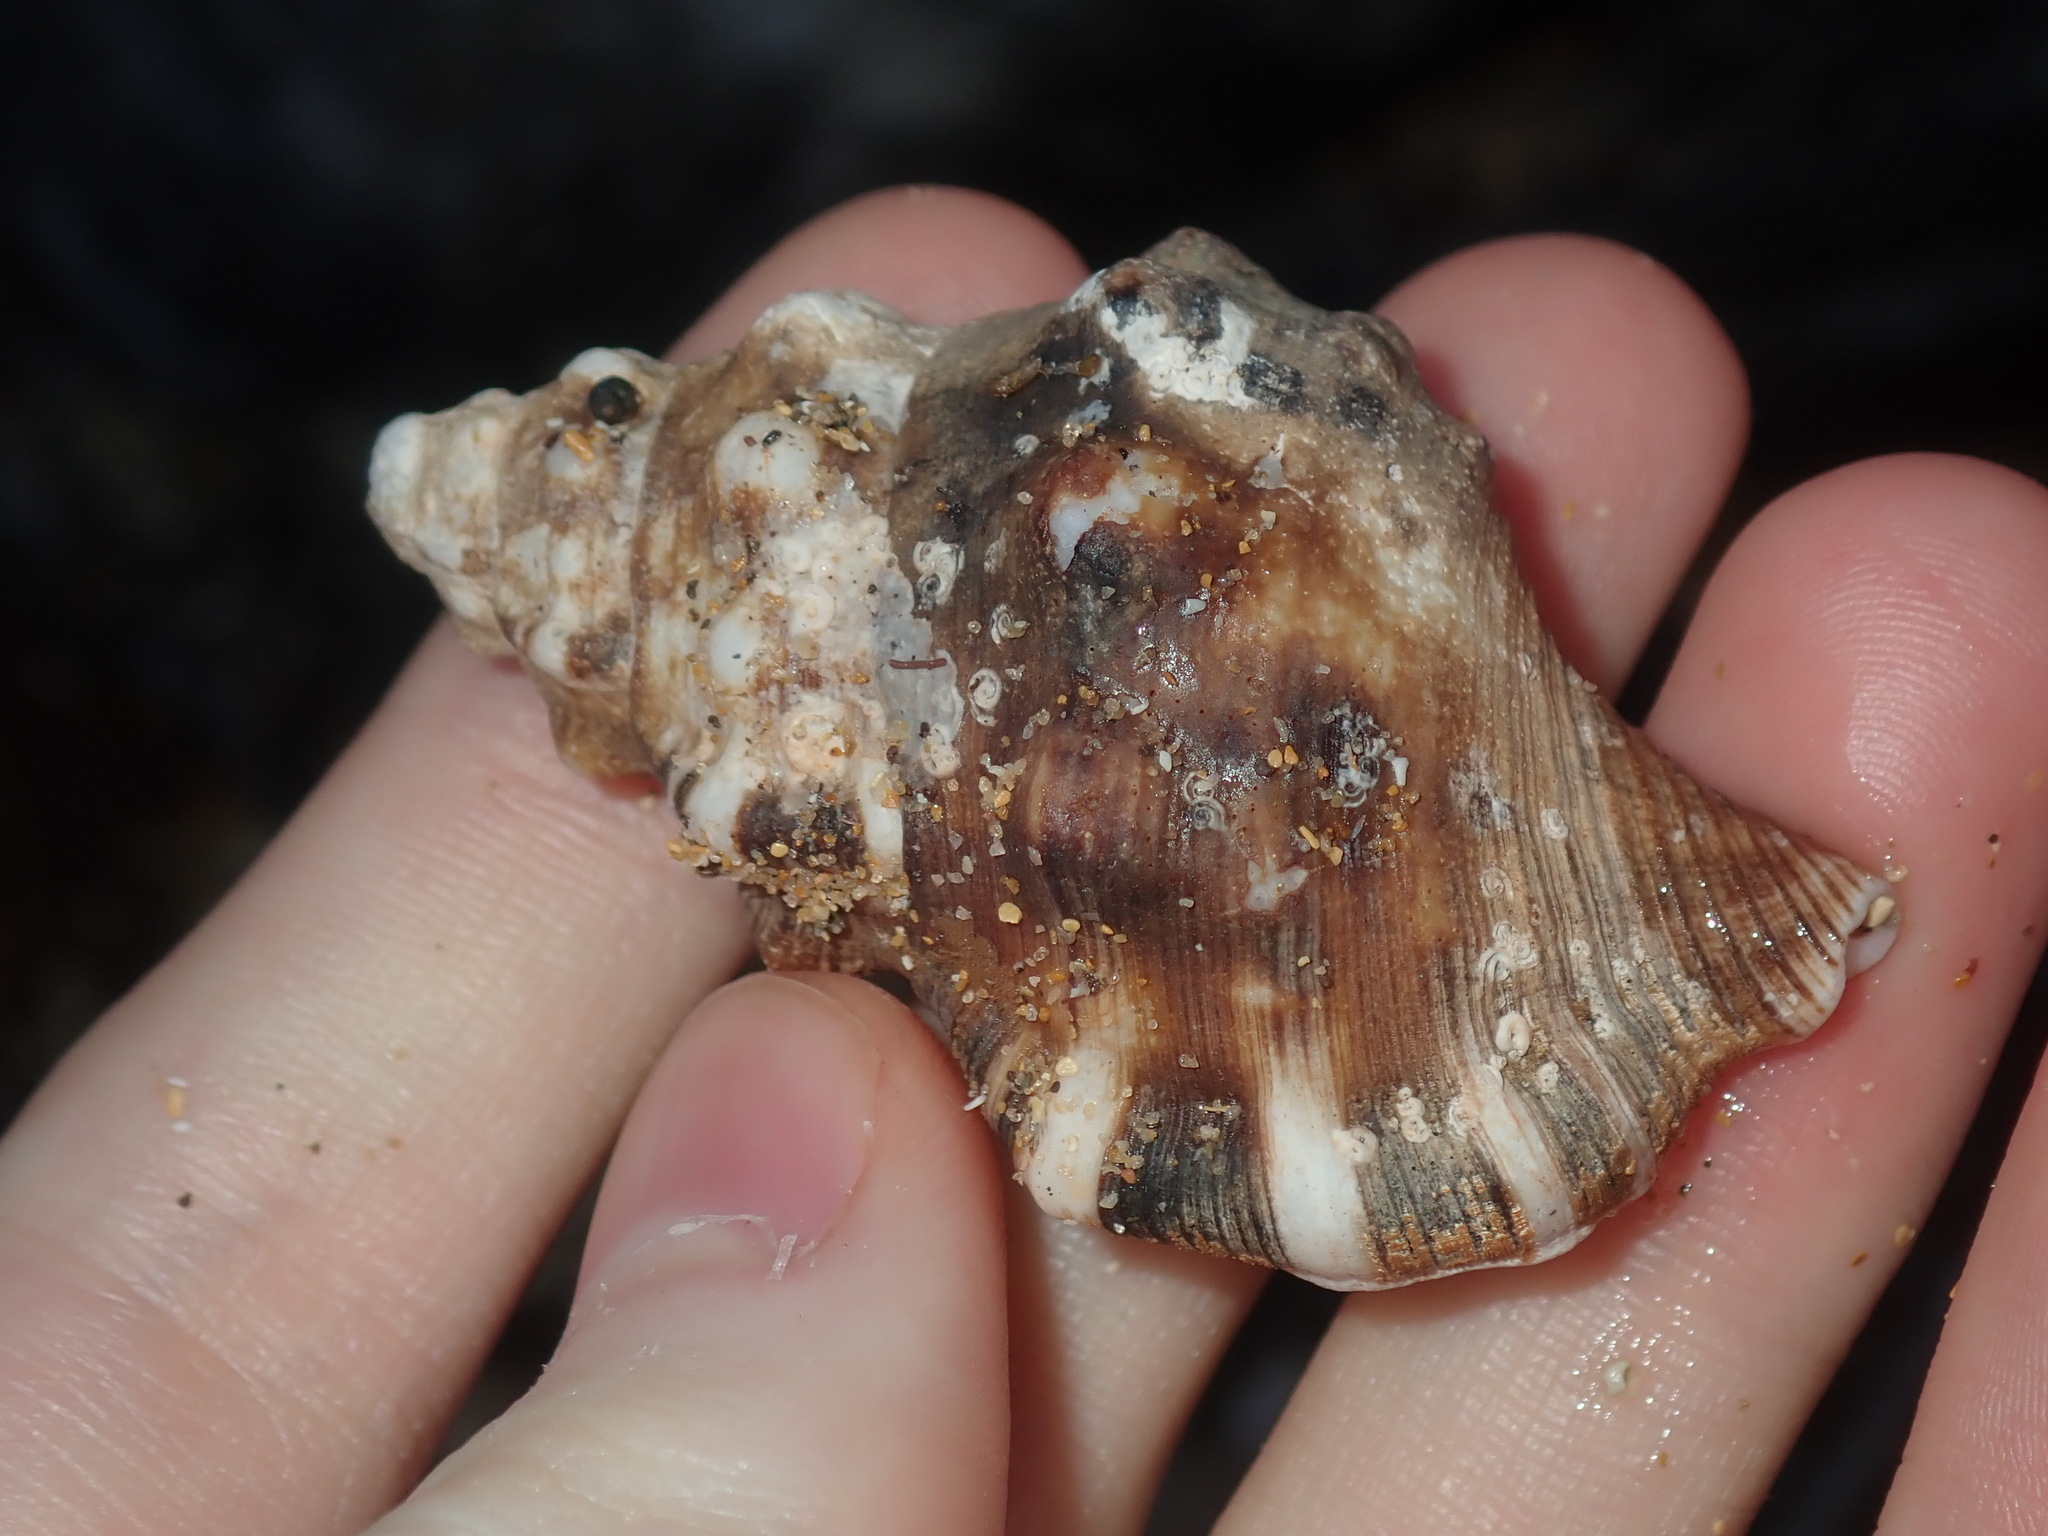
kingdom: Animalia
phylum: Mollusca
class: Gastropoda
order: Littorinimorpha
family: Ranellidae
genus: Ranella
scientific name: Ranella australasia
